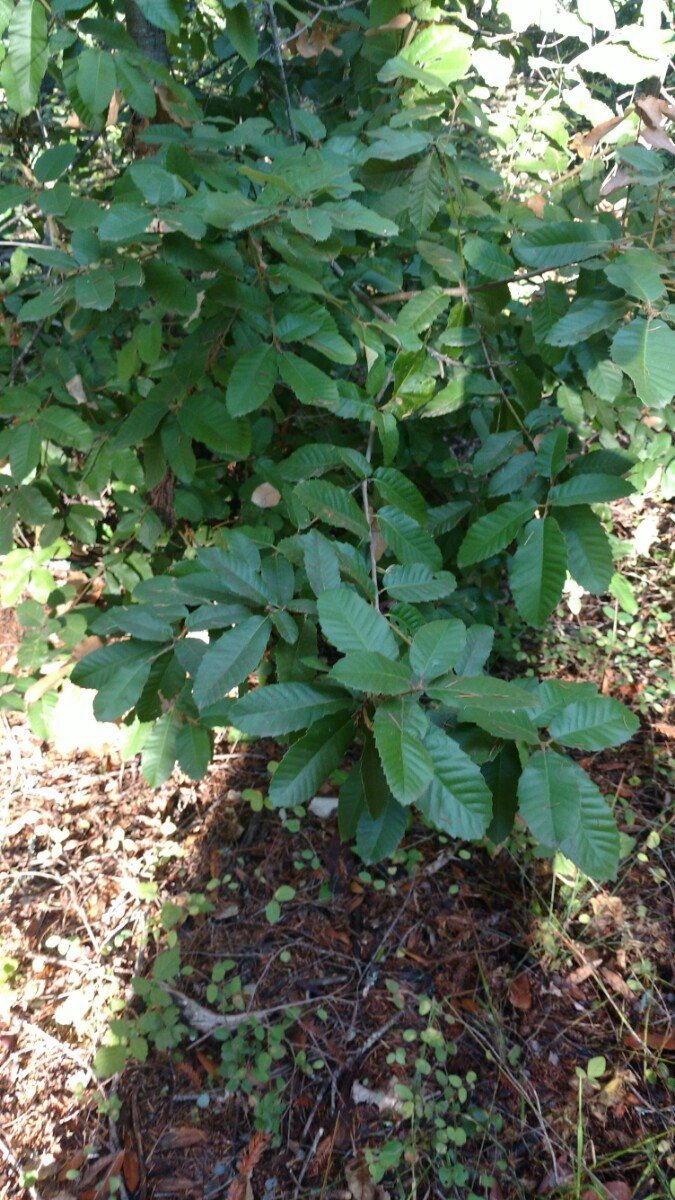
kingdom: Plantae
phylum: Tracheophyta
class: Magnoliopsida
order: Fagales
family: Fagaceae
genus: Notholithocarpus
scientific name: Notholithocarpus densiflorus
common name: Tan bark oak
